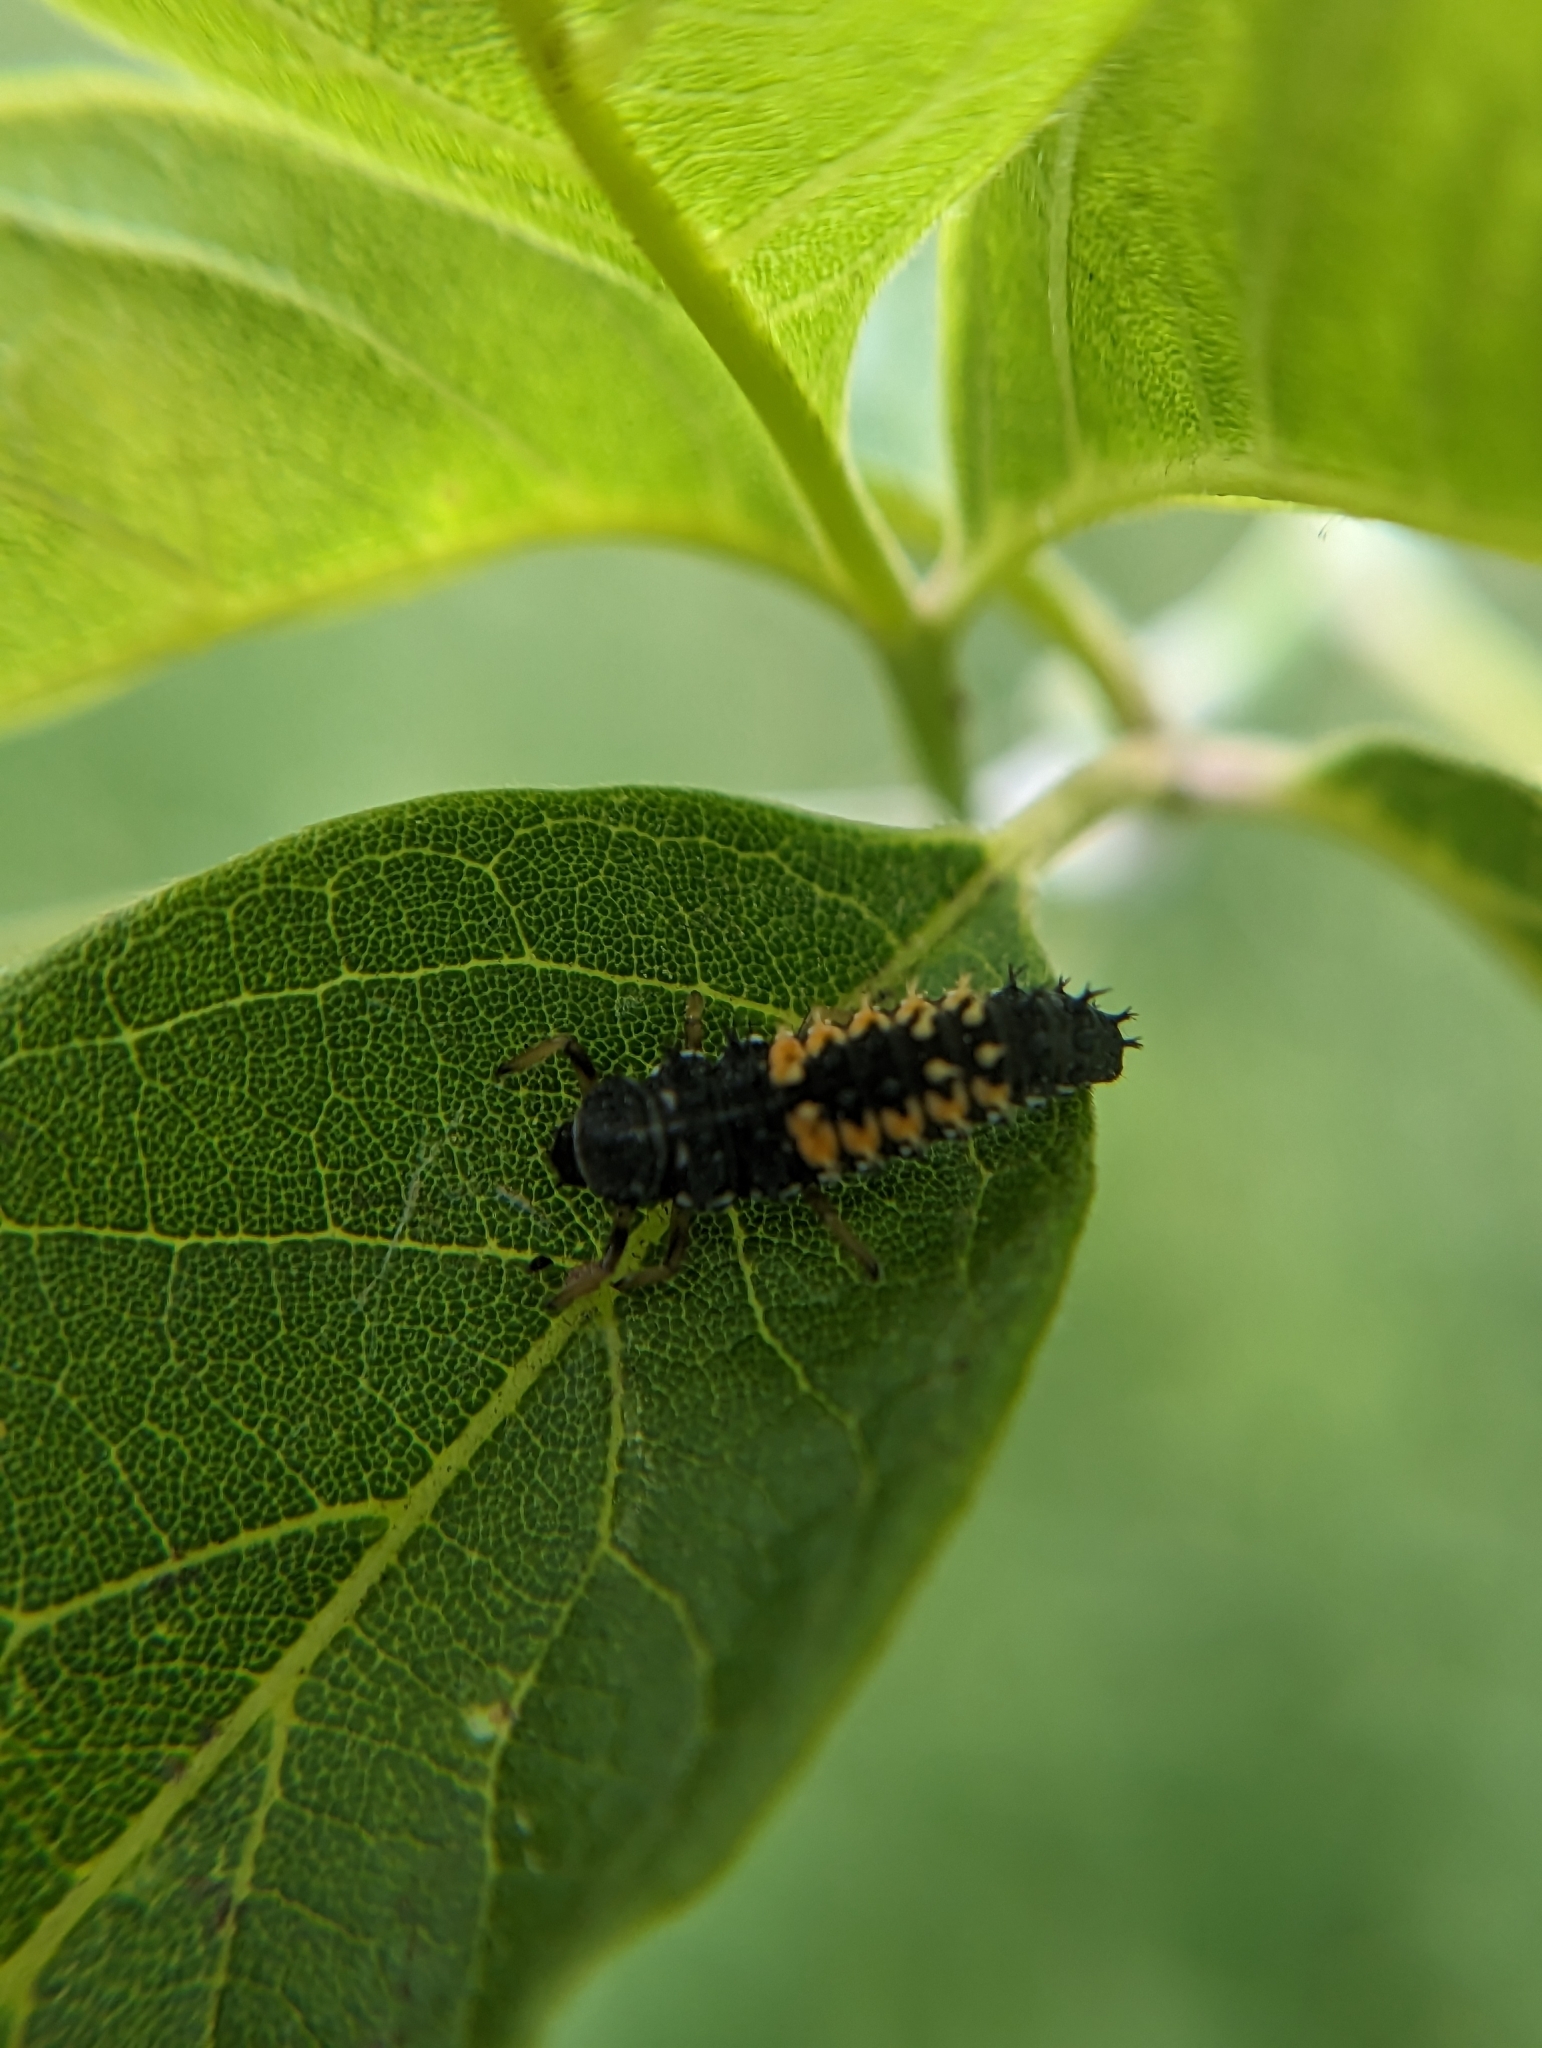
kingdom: Animalia
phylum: Arthropoda
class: Insecta
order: Coleoptera
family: Coccinellidae
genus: Harmonia
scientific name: Harmonia axyridis
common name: Harlequin ladybird
